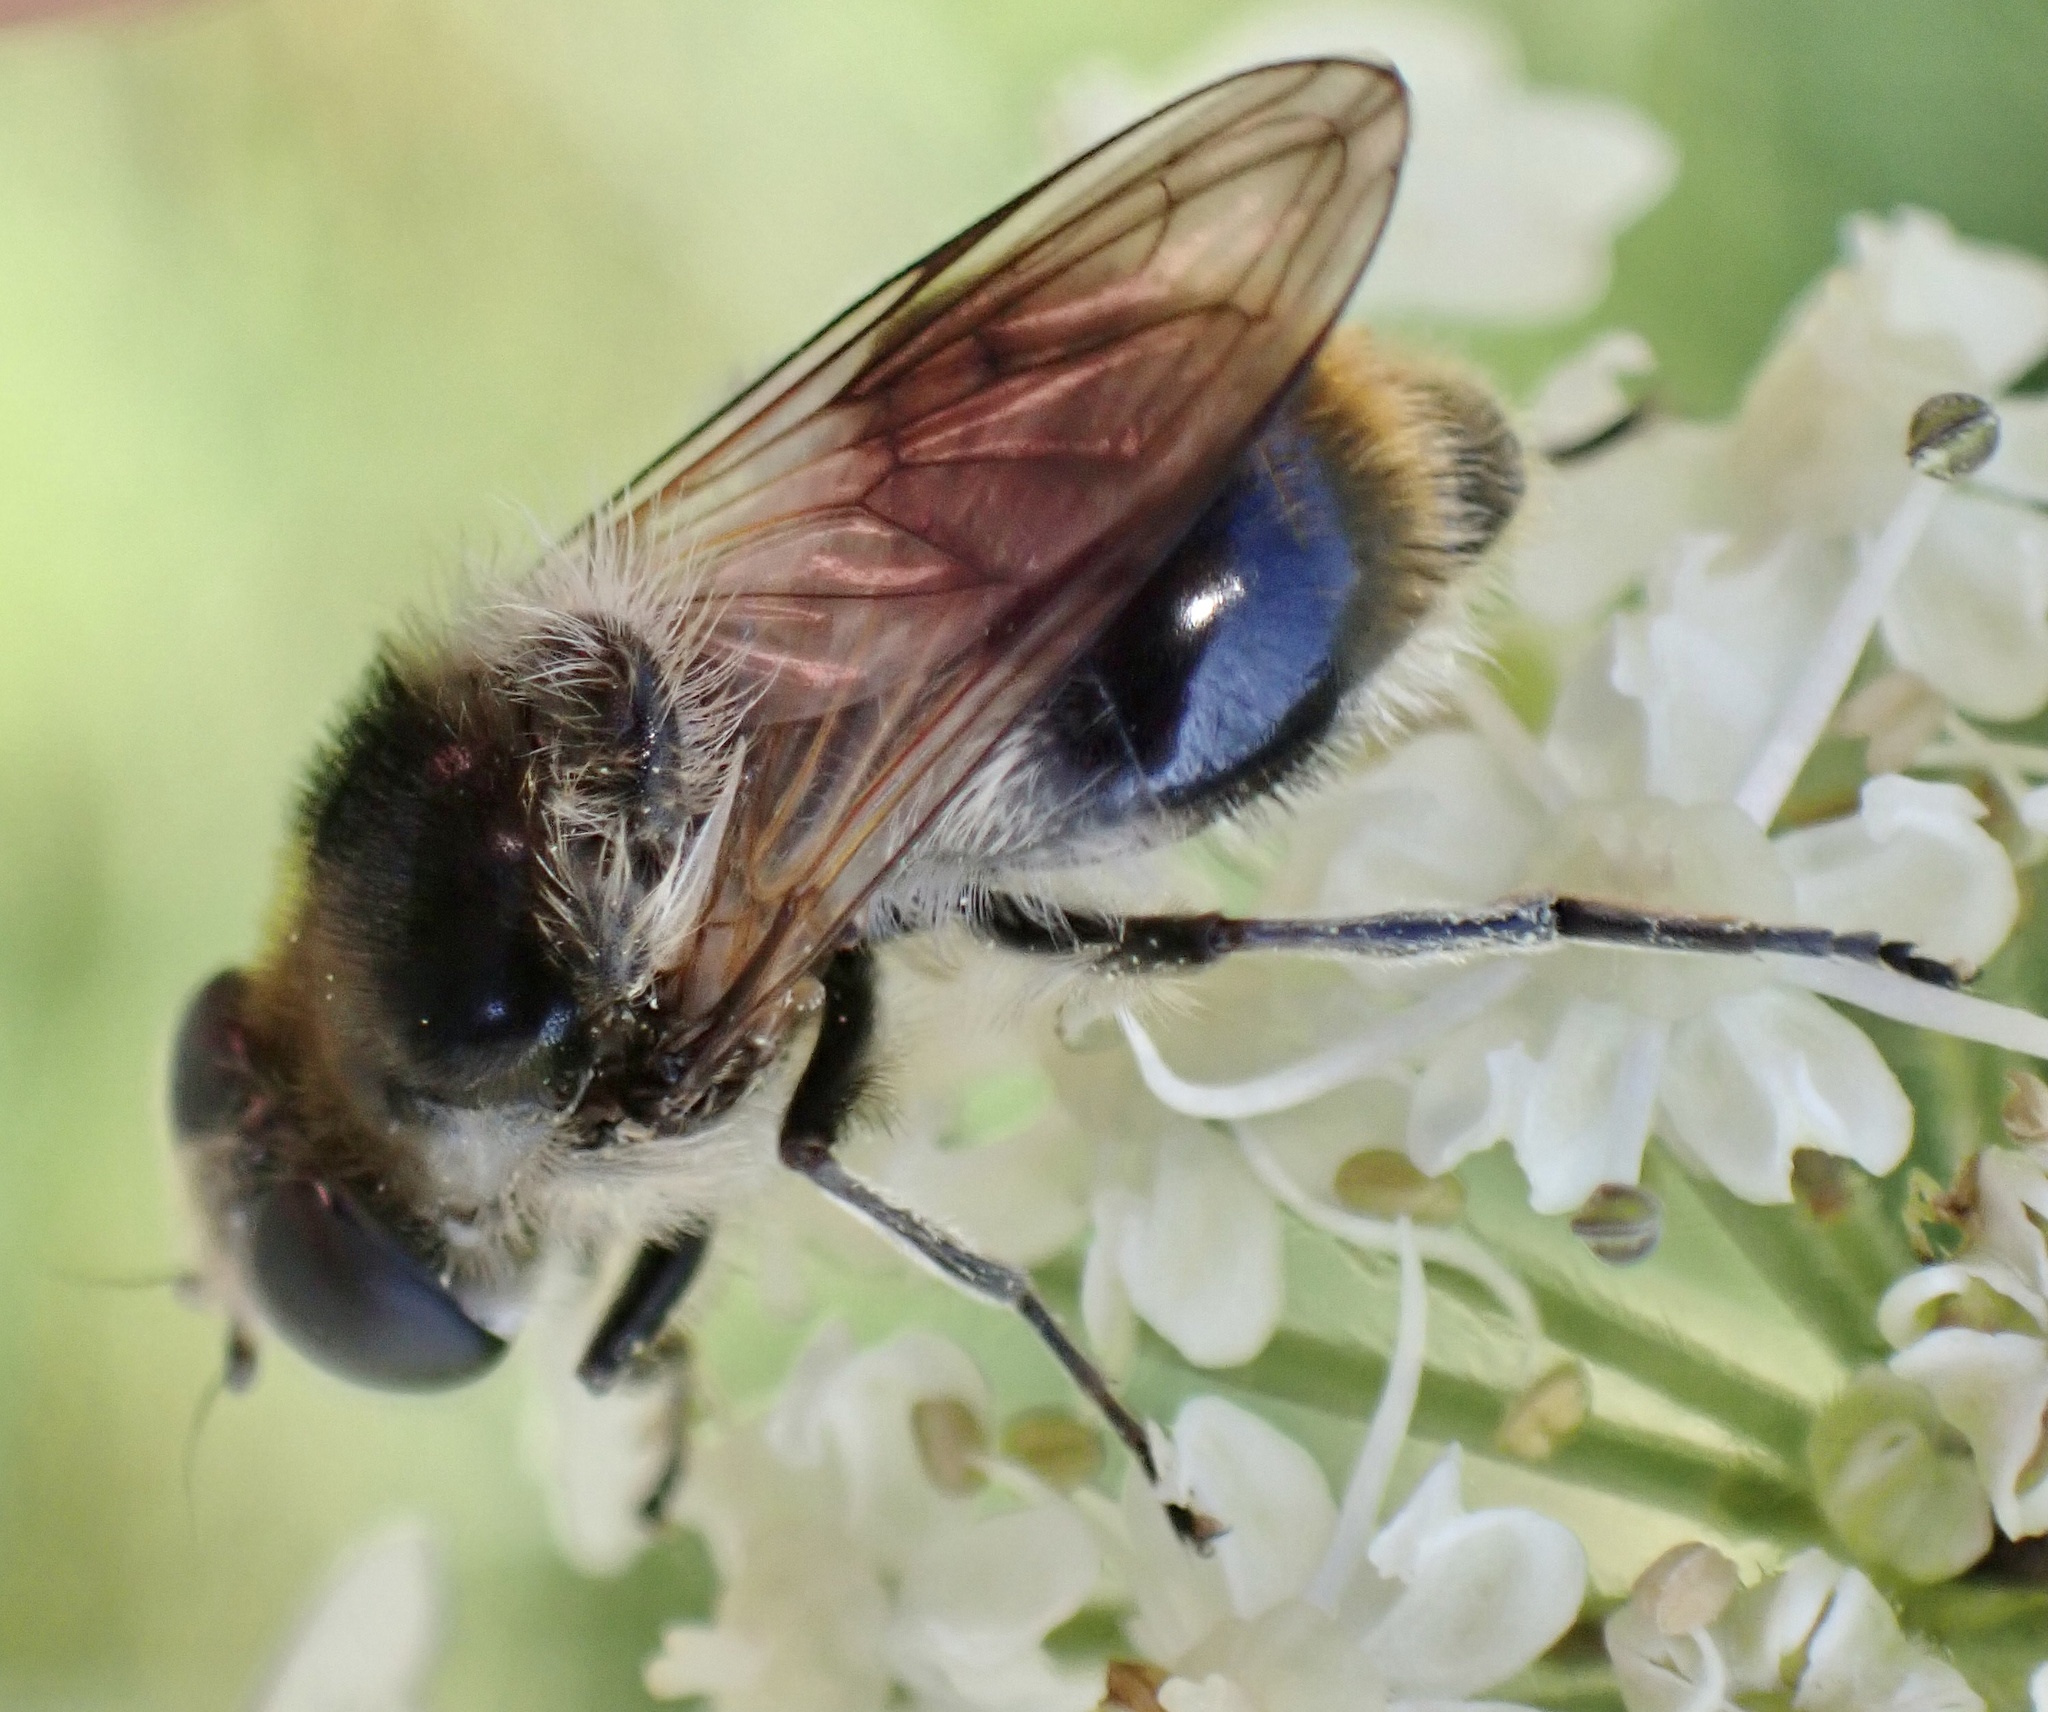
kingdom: Animalia
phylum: Arthropoda
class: Insecta
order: Diptera
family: Syrphidae
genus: Cheilosia
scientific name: Cheilosia illustrata
